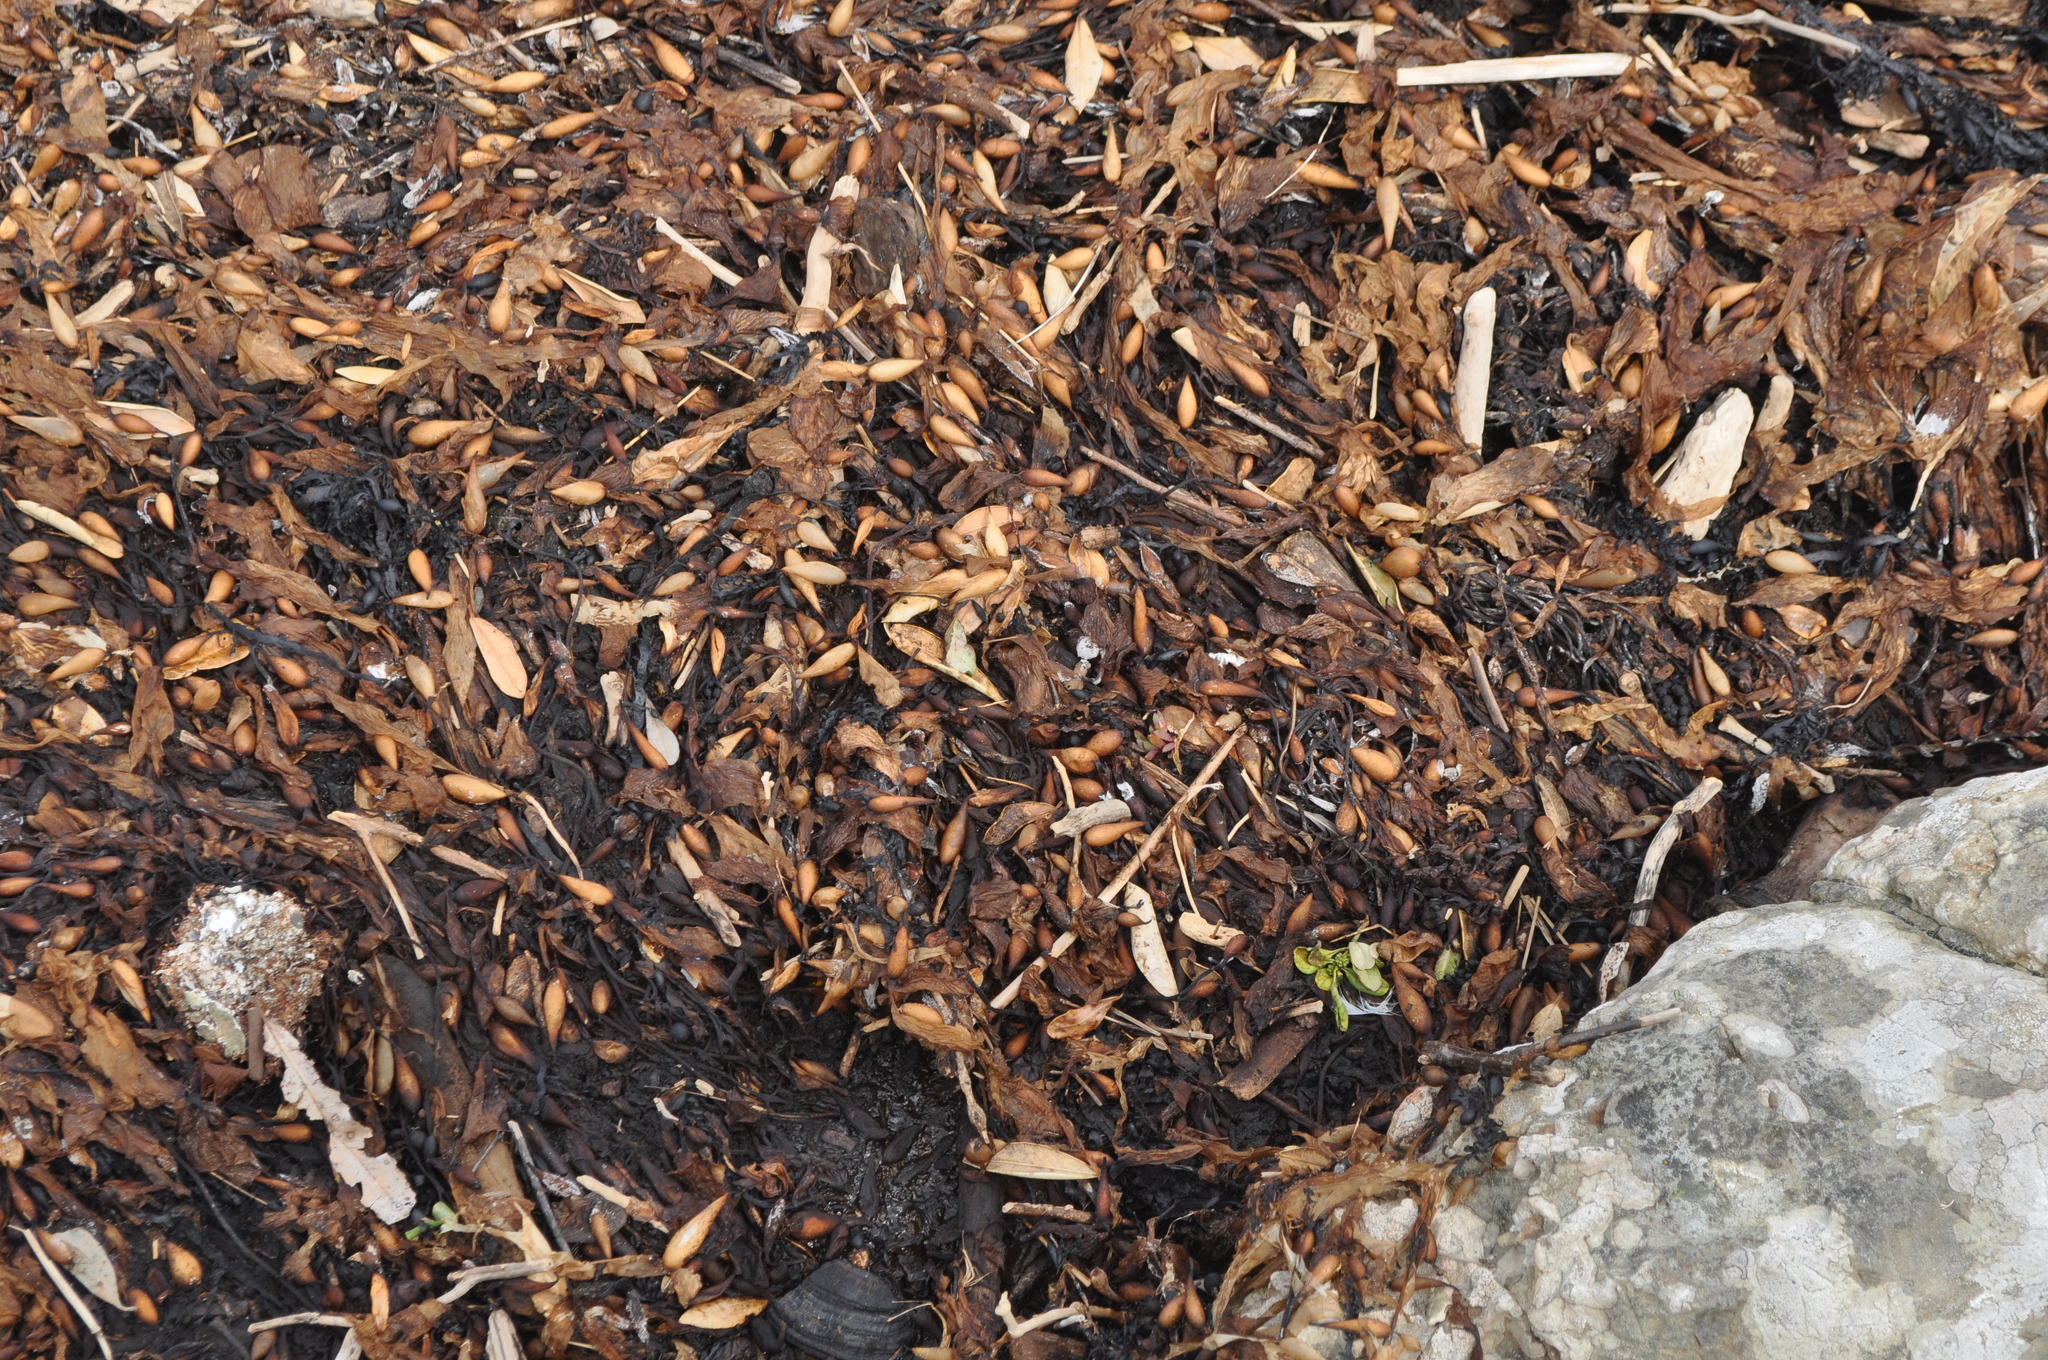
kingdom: Chromista
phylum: Ochrophyta
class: Phaeophyceae
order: Laminariales
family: Laminariaceae
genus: Macrocystis
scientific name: Macrocystis pyrifera
